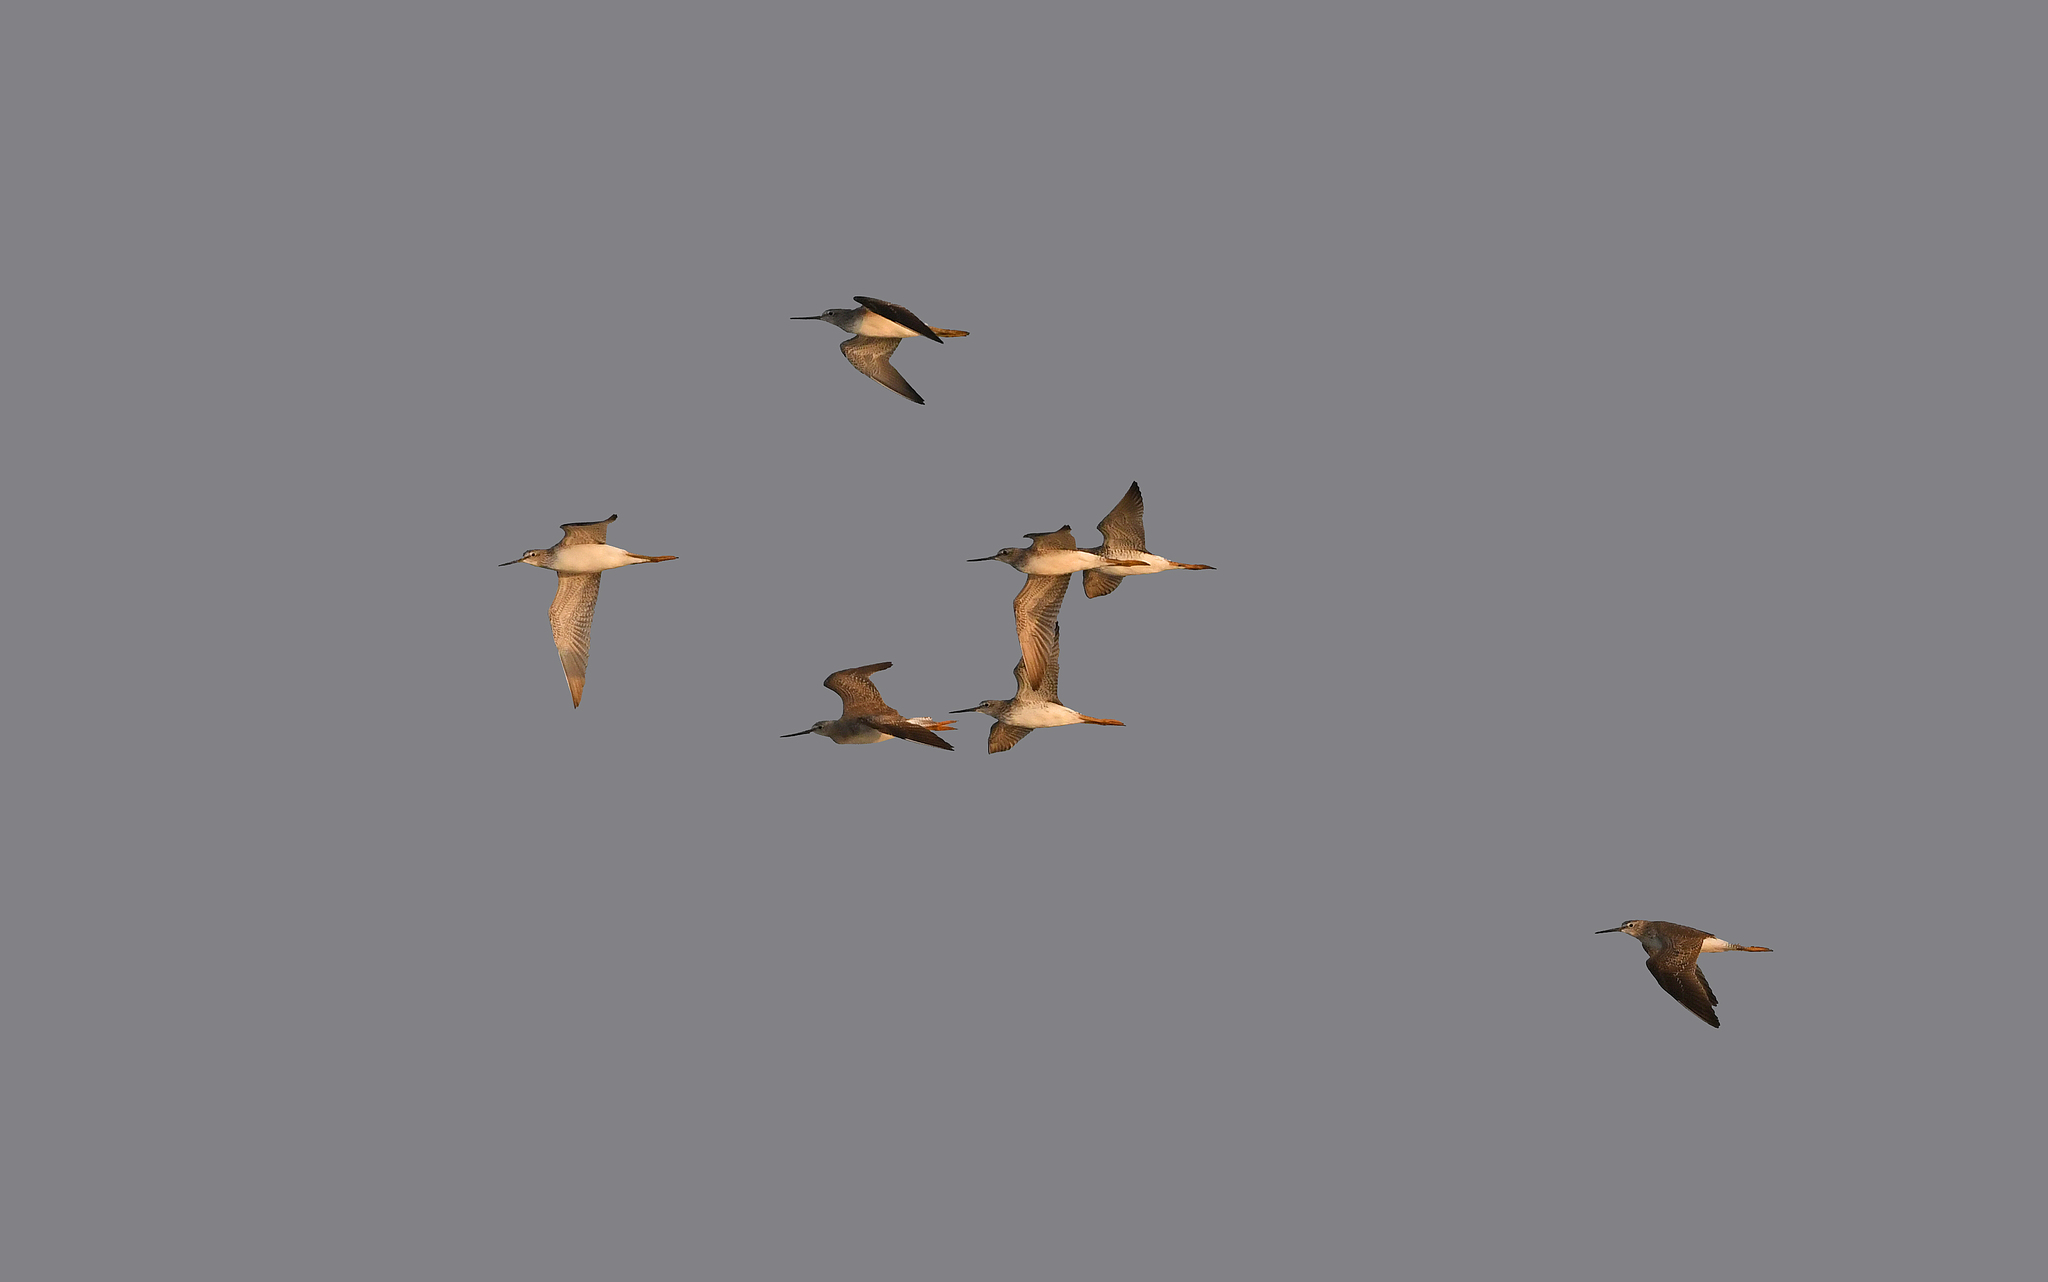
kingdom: Animalia
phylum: Chordata
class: Aves
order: Charadriiformes
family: Scolopacidae
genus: Tringa
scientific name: Tringa flavipes
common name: Lesser yellowlegs
